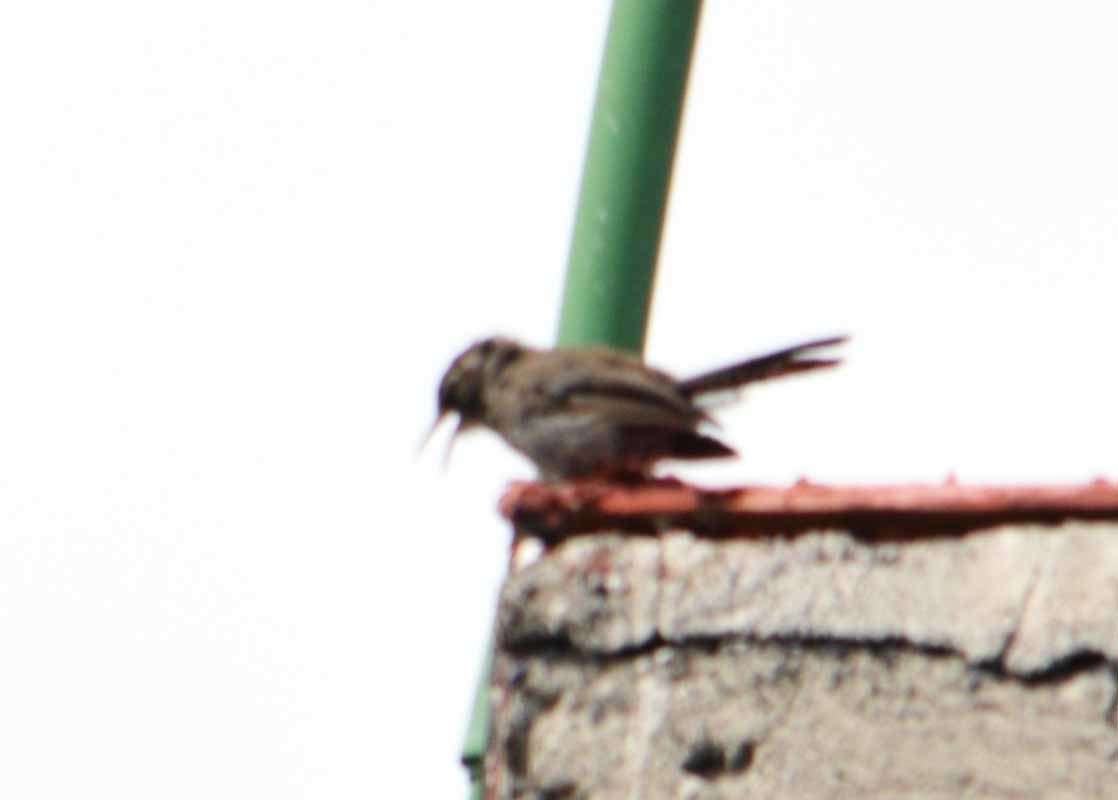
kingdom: Animalia
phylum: Chordata
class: Aves
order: Passeriformes
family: Troglodytidae
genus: Thryomanes
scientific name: Thryomanes bewickii
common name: Bewick's wren
